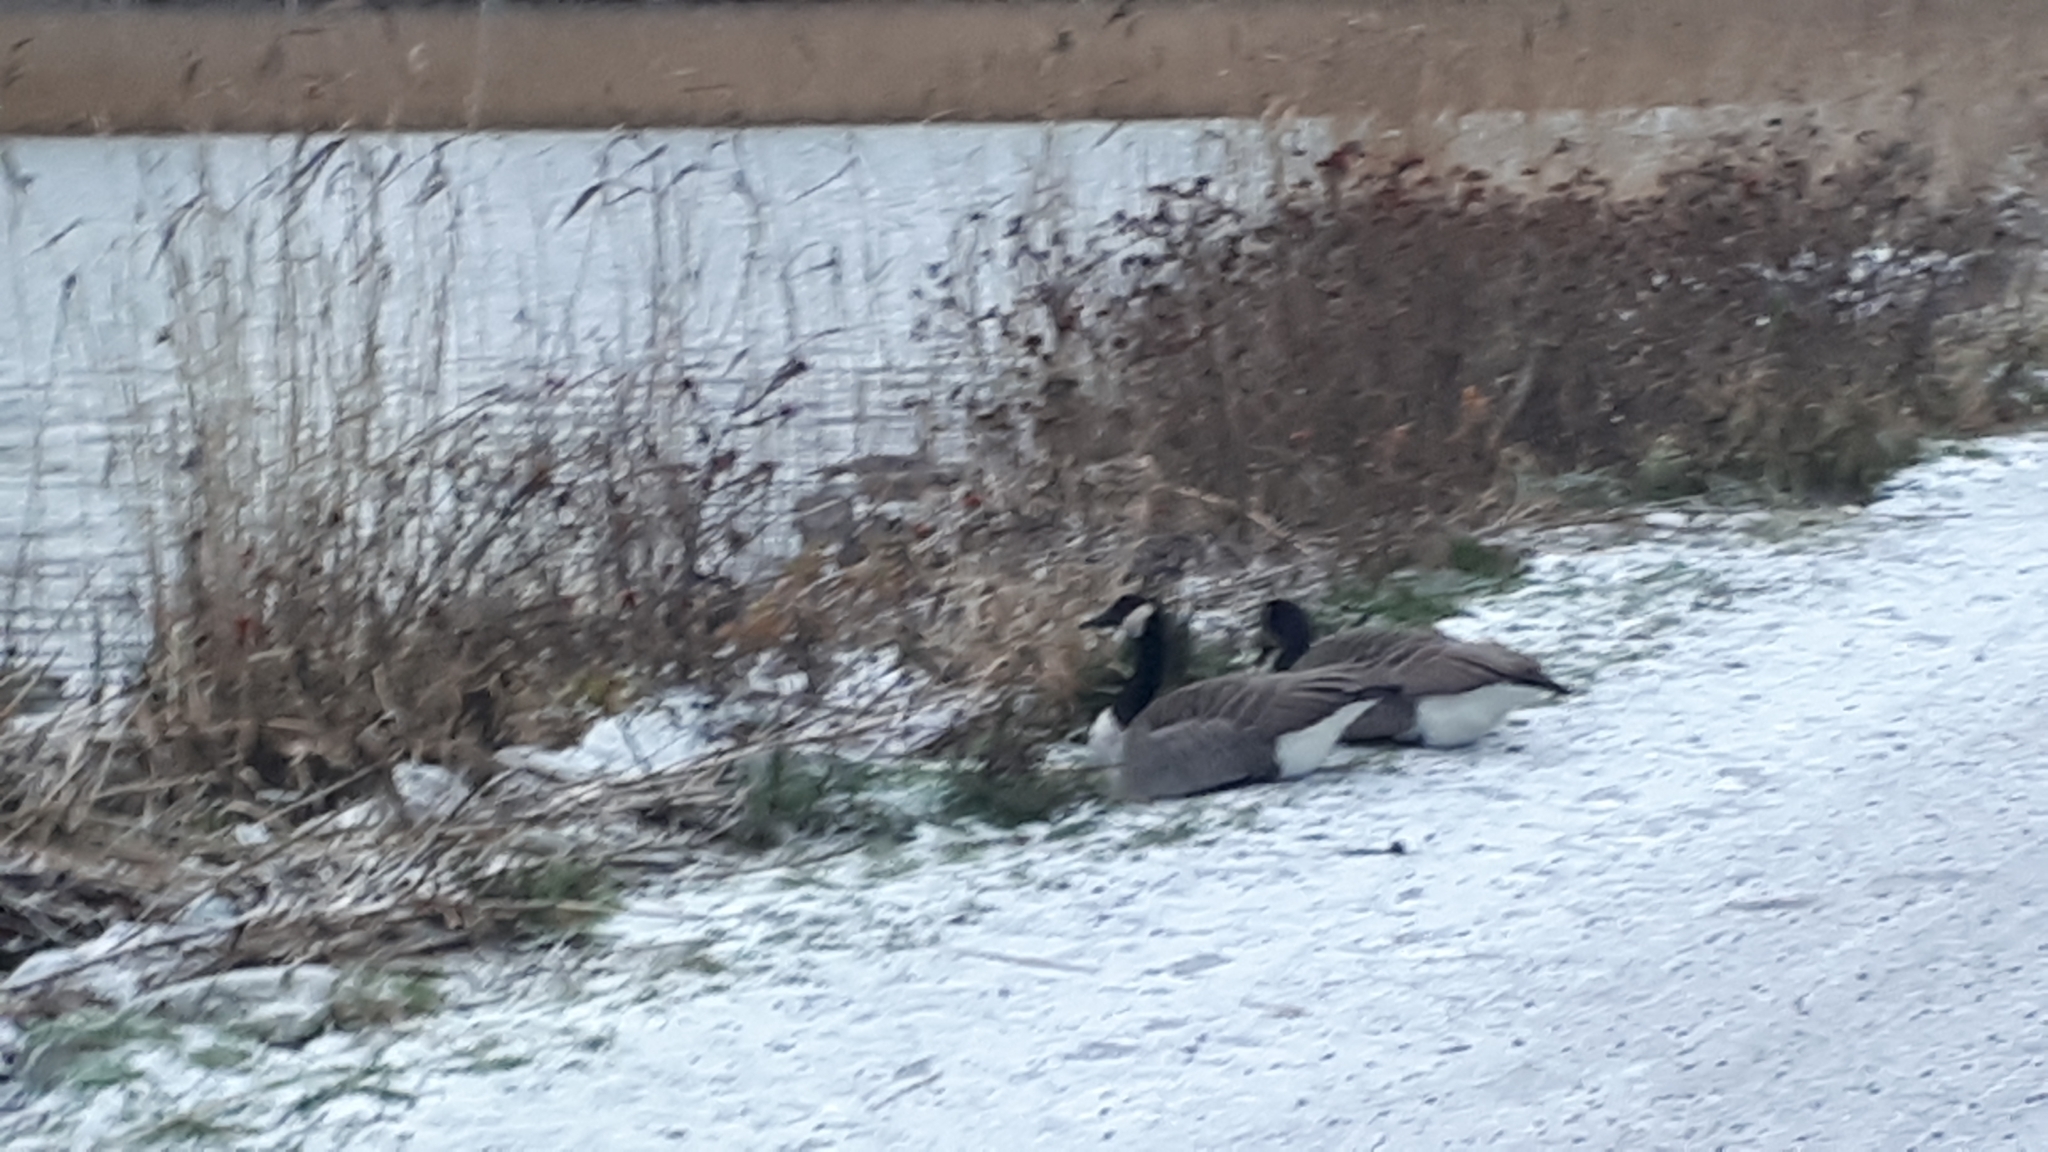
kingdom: Animalia
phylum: Chordata
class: Aves
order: Anseriformes
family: Anatidae
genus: Branta
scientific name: Branta canadensis
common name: Canada goose
